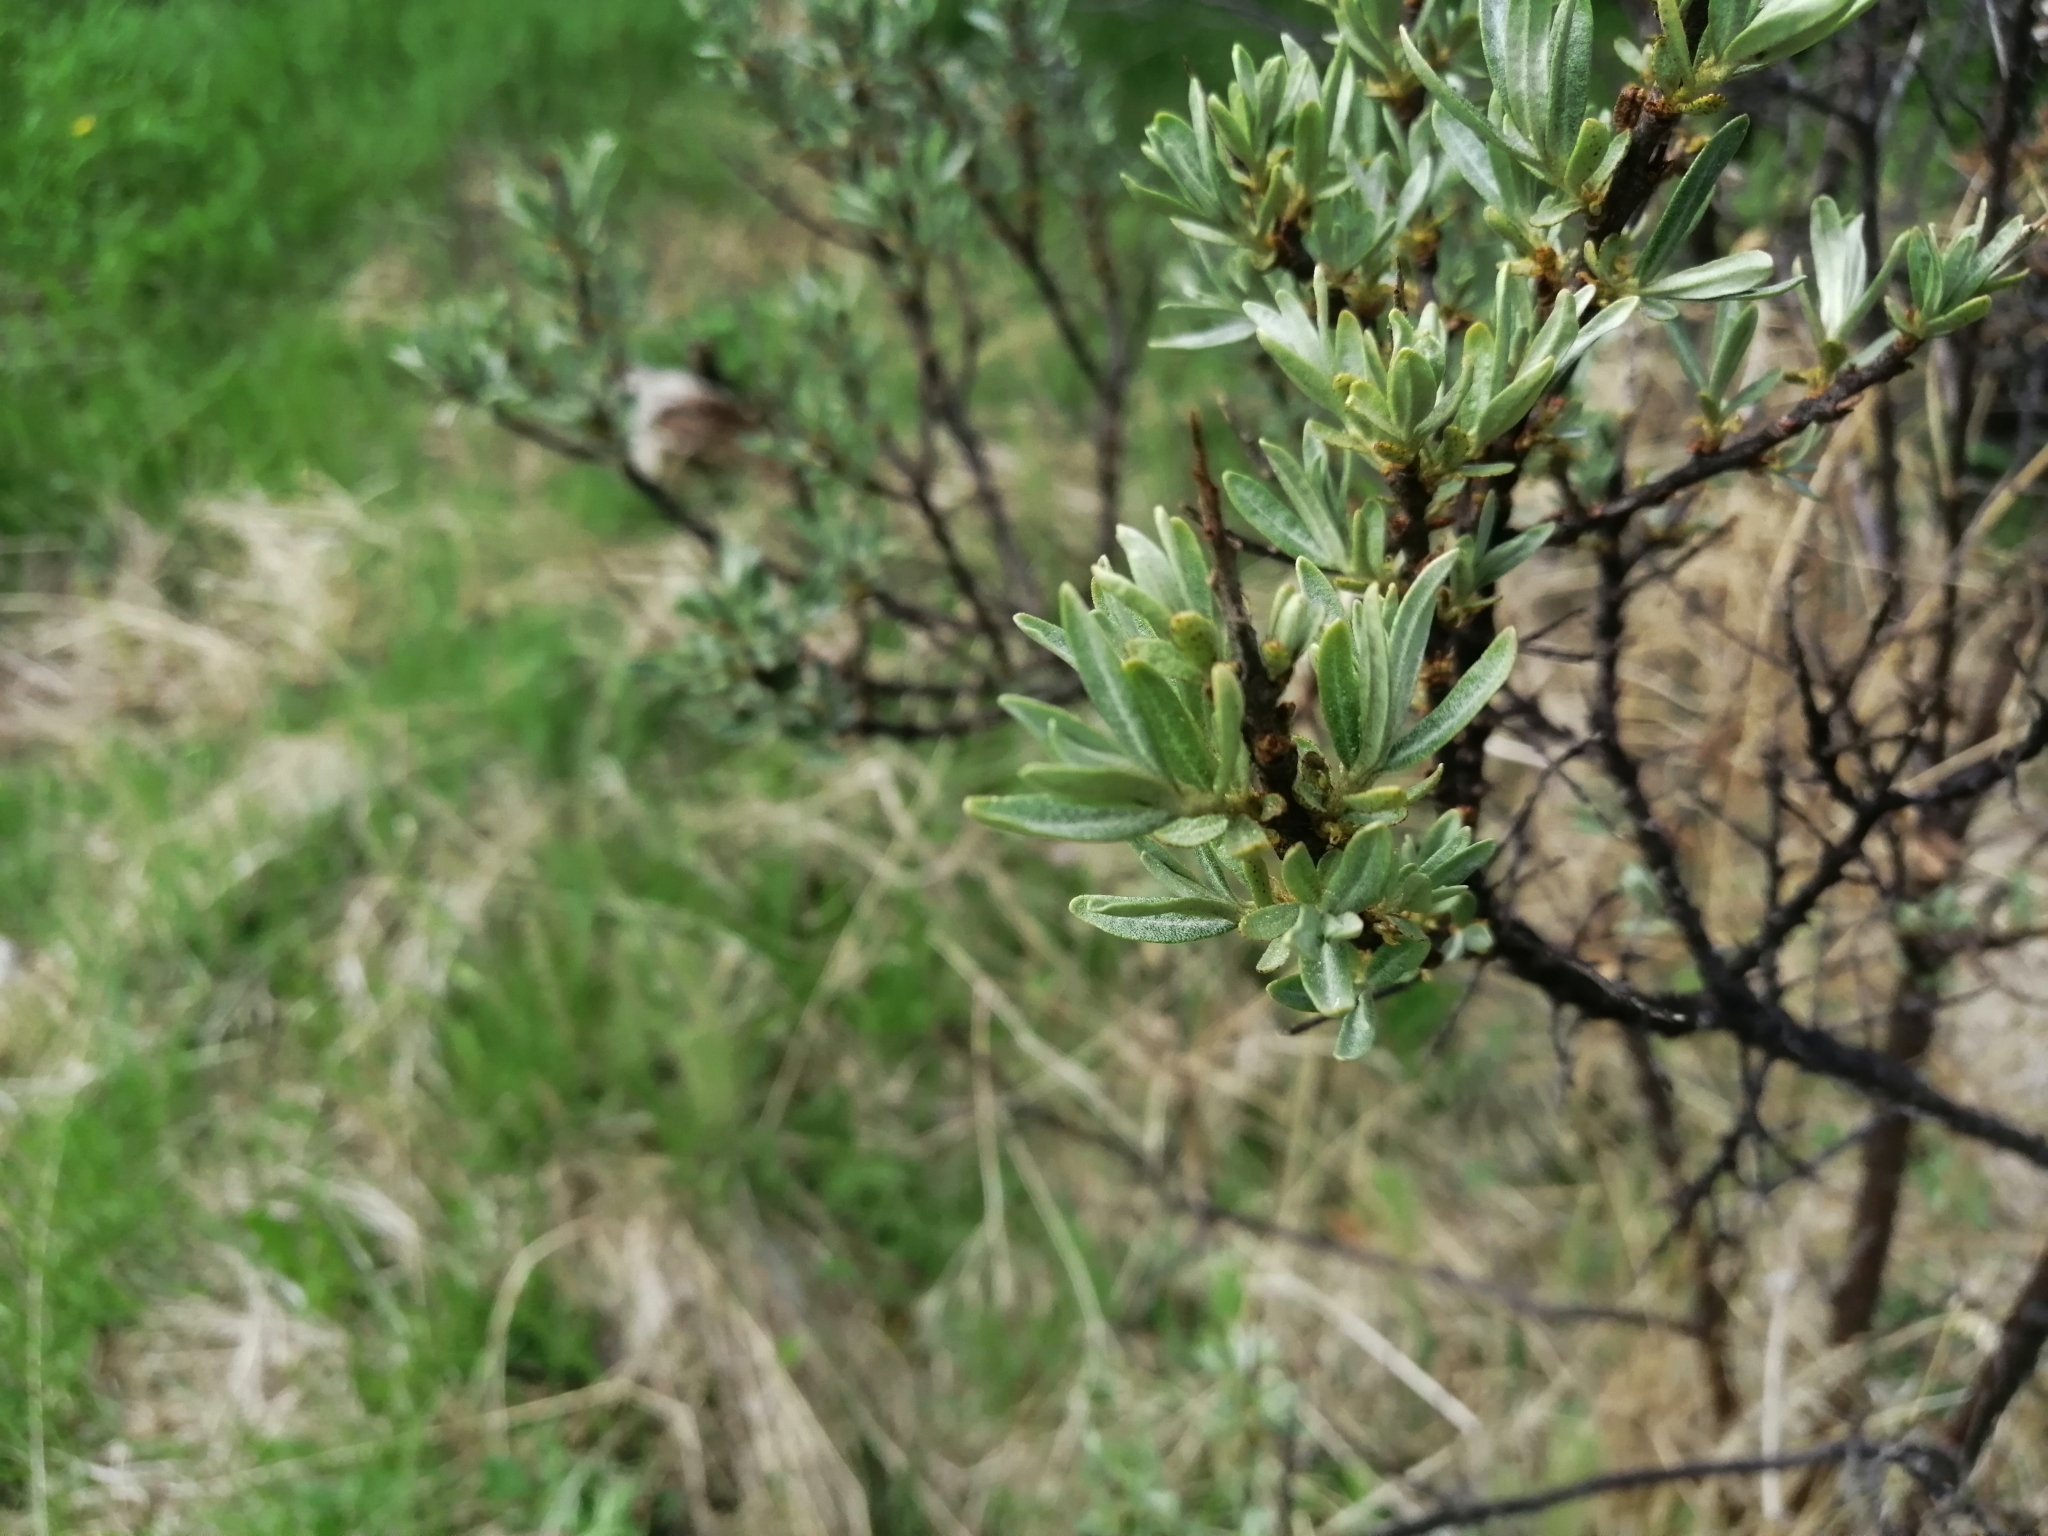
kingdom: Plantae
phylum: Tracheophyta
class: Magnoliopsida
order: Rosales
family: Elaeagnaceae
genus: Hippophae
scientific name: Hippophae rhamnoides
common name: Sea-buckthorn
